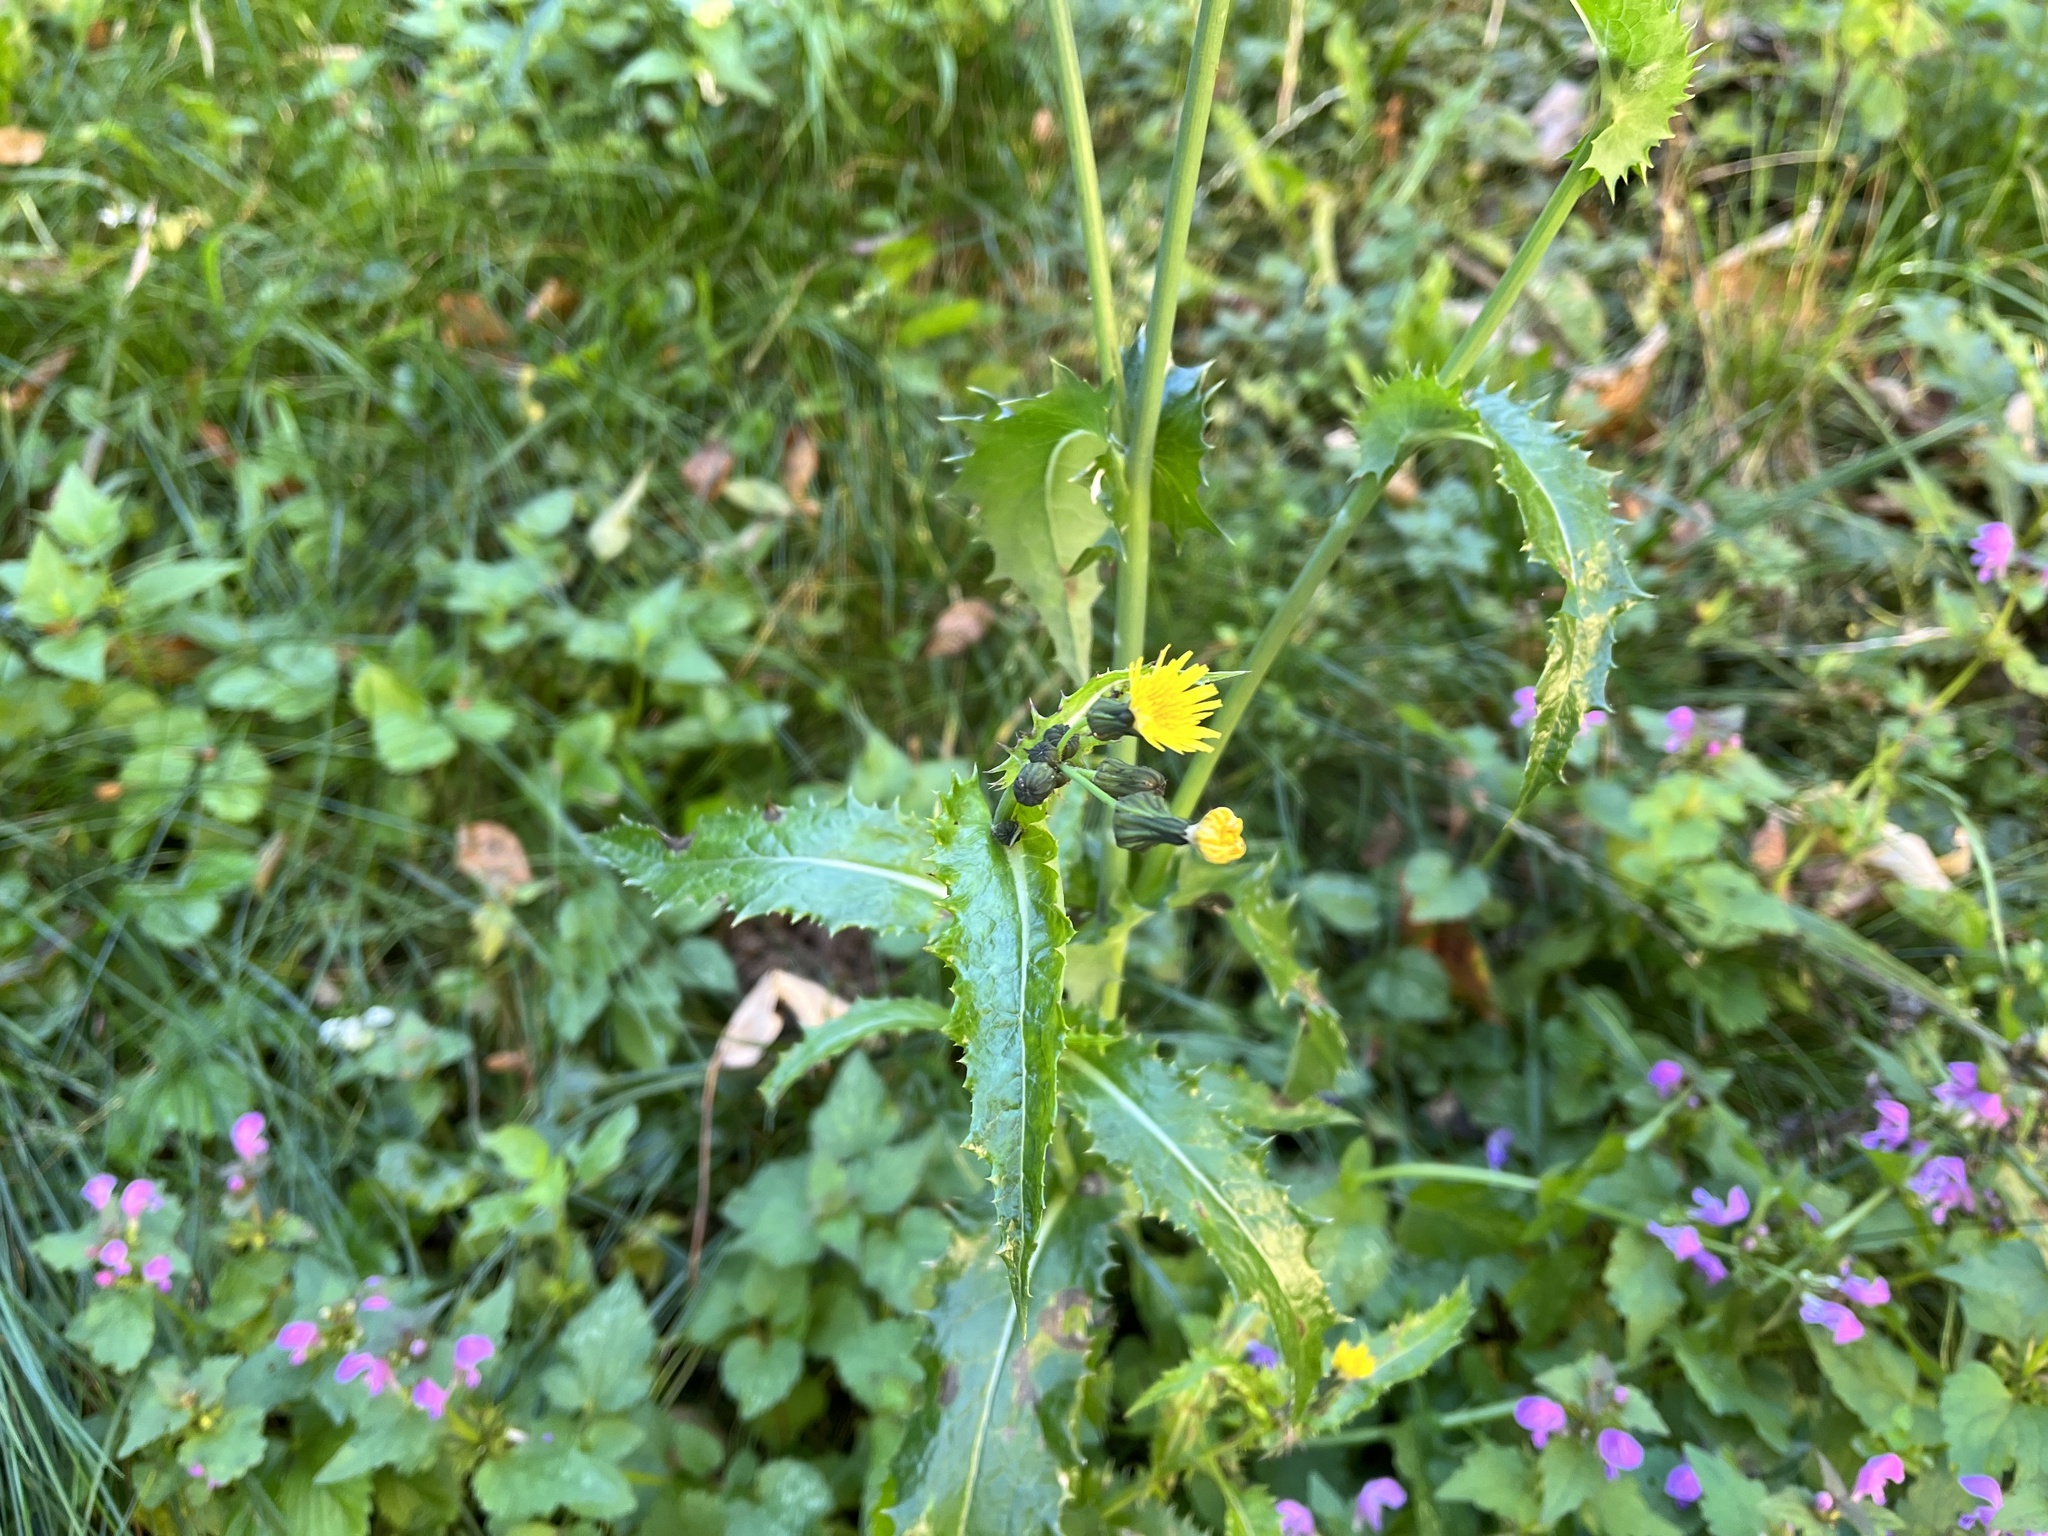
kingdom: Plantae
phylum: Tracheophyta
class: Magnoliopsida
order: Asterales
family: Asteraceae
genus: Sonchus
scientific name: Sonchus asper
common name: Prickly sow-thistle
